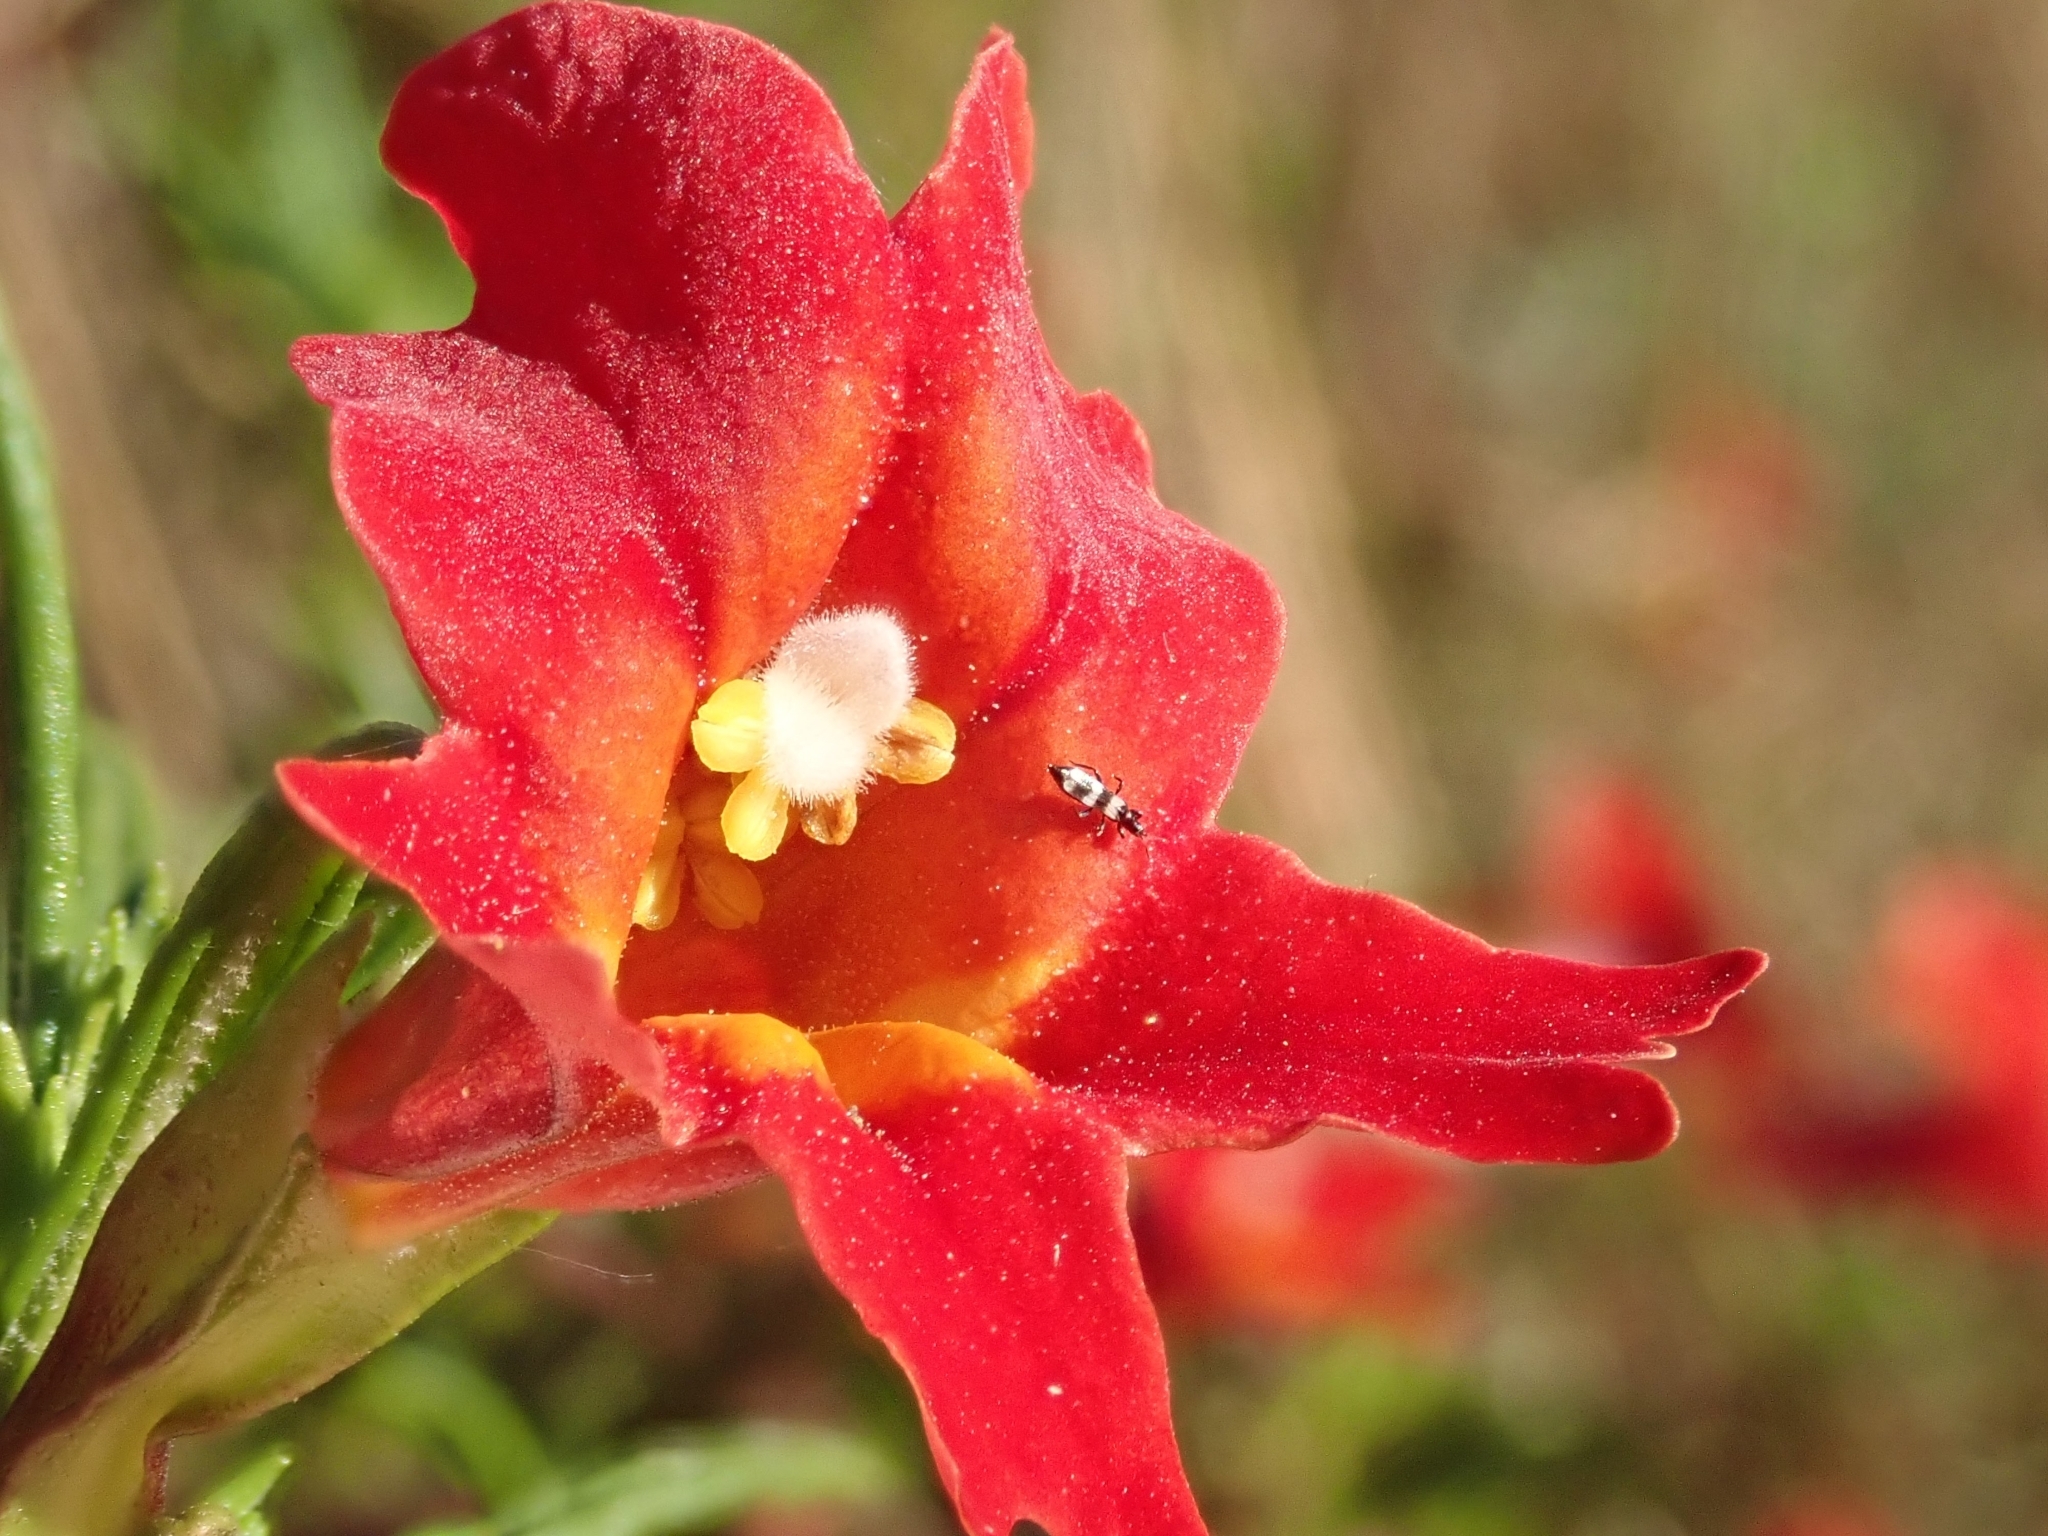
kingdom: Plantae
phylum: Tracheophyta
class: Magnoliopsida
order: Lamiales
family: Phrymaceae
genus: Diplacus
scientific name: Diplacus puniceus
